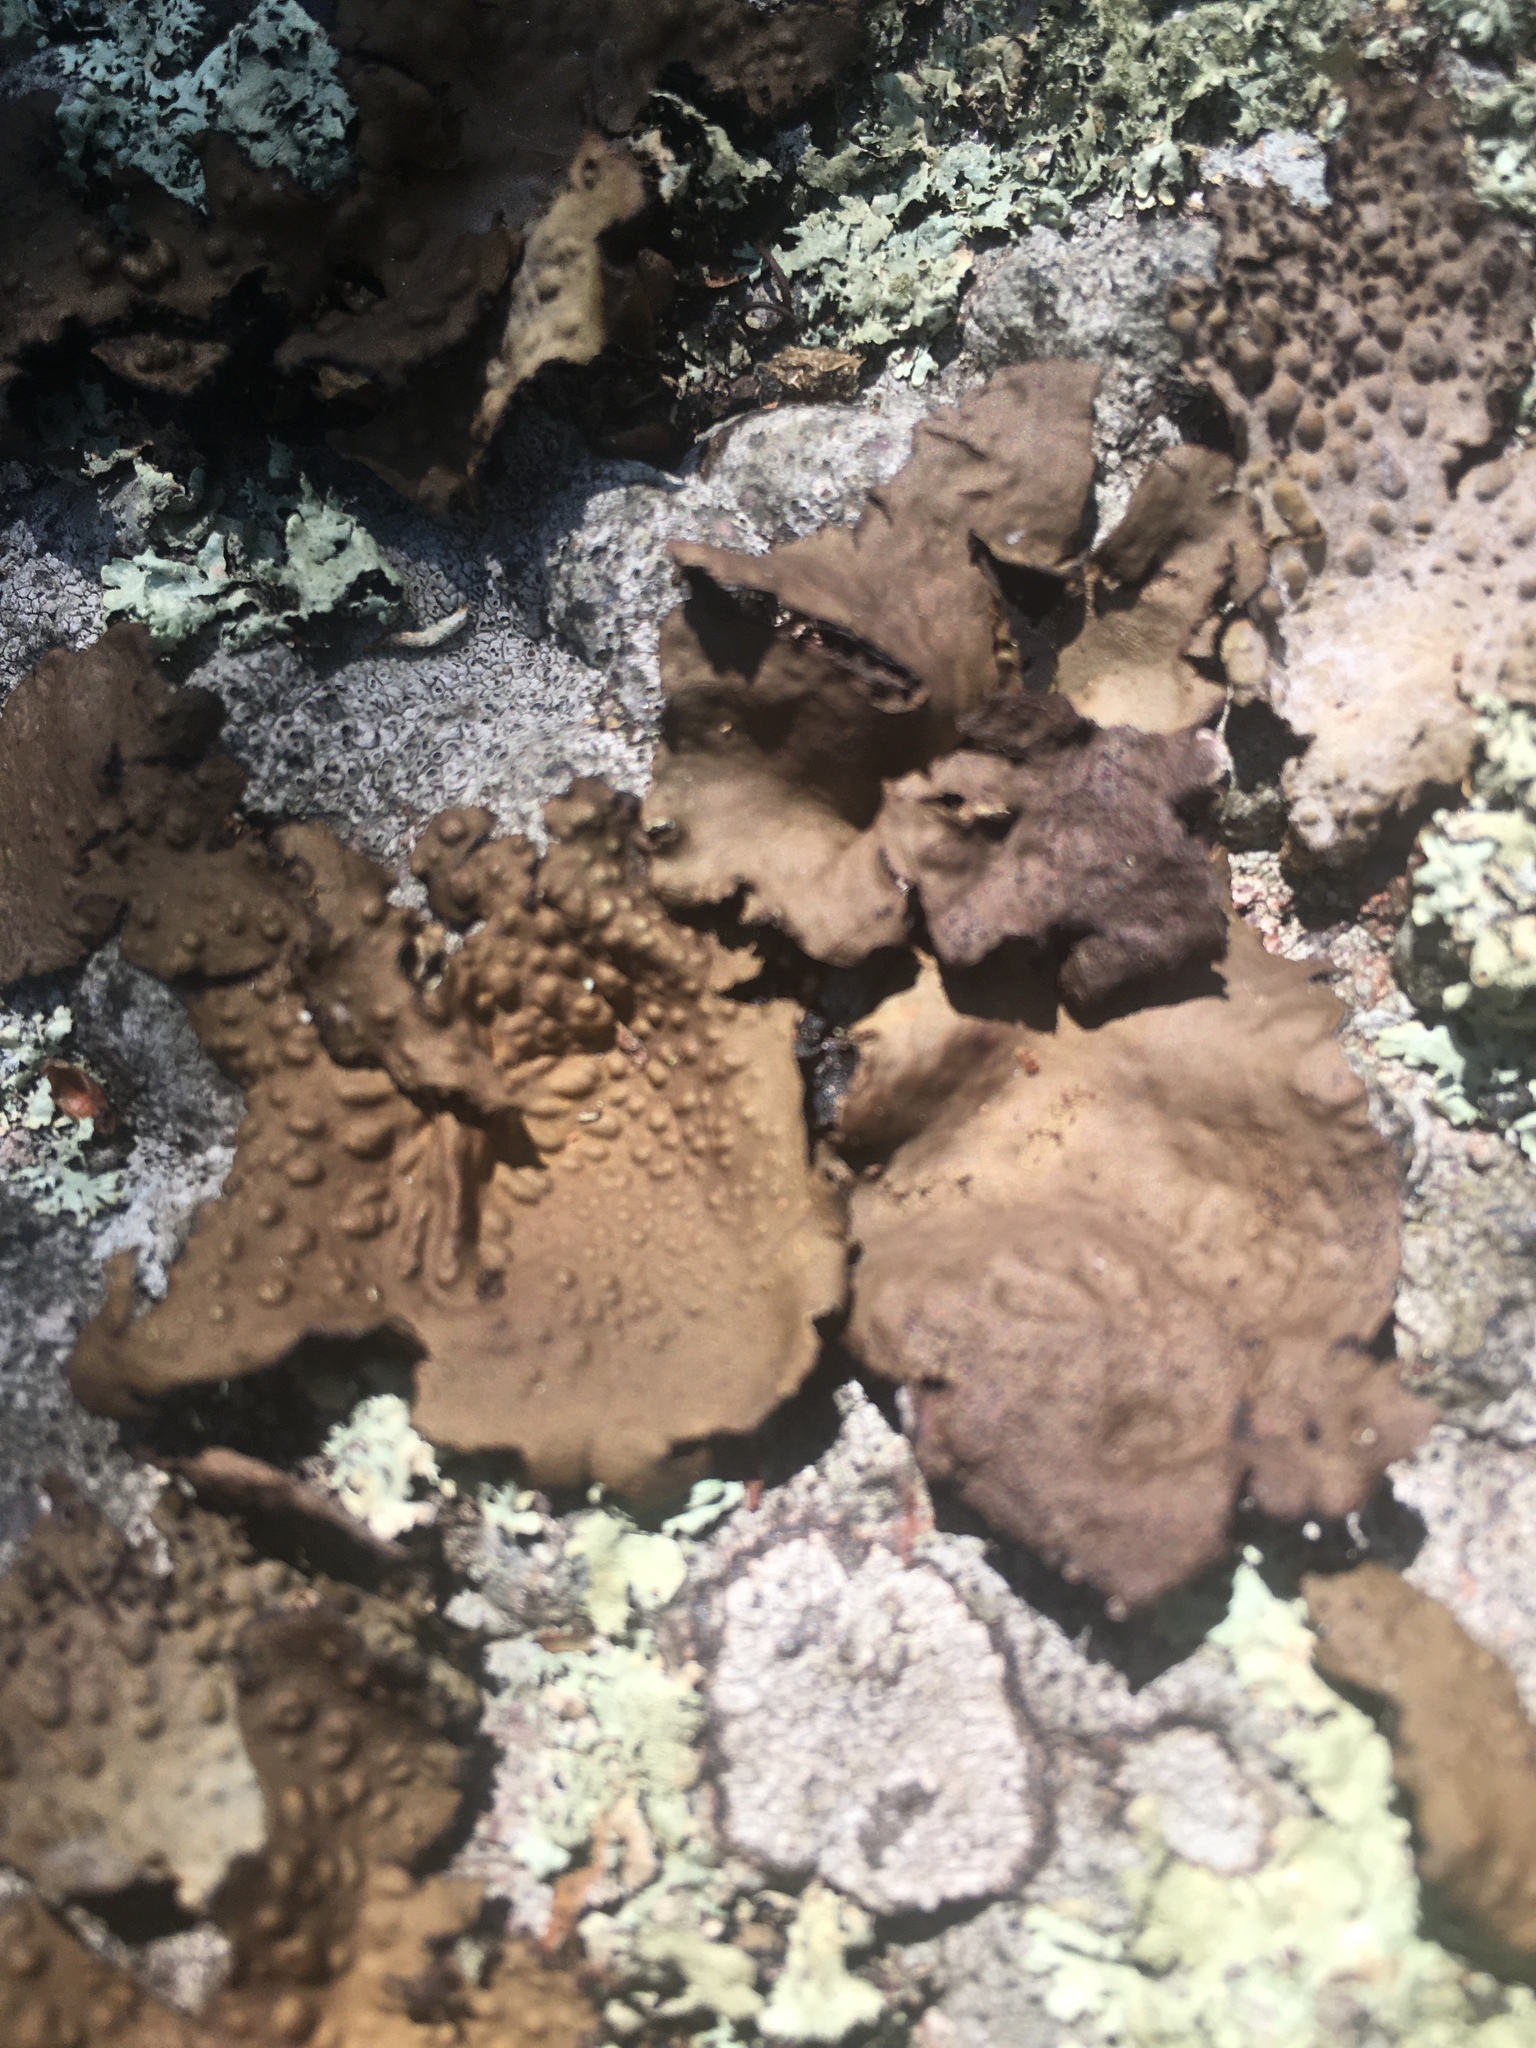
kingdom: Fungi
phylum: Ascomycota
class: Lecanoromycetes
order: Umbilicariales
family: Umbilicariaceae
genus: Lasallia
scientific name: Lasallia papulosa
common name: Common toadskin lichen
